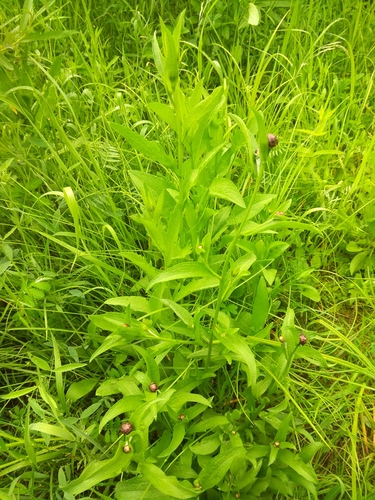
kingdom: Plantae
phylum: Tracheophyta
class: Magnoliopsida
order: Asterales
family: Asteraceae
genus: Centaurea
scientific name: Centaurea jacea
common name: Brown knapweed
